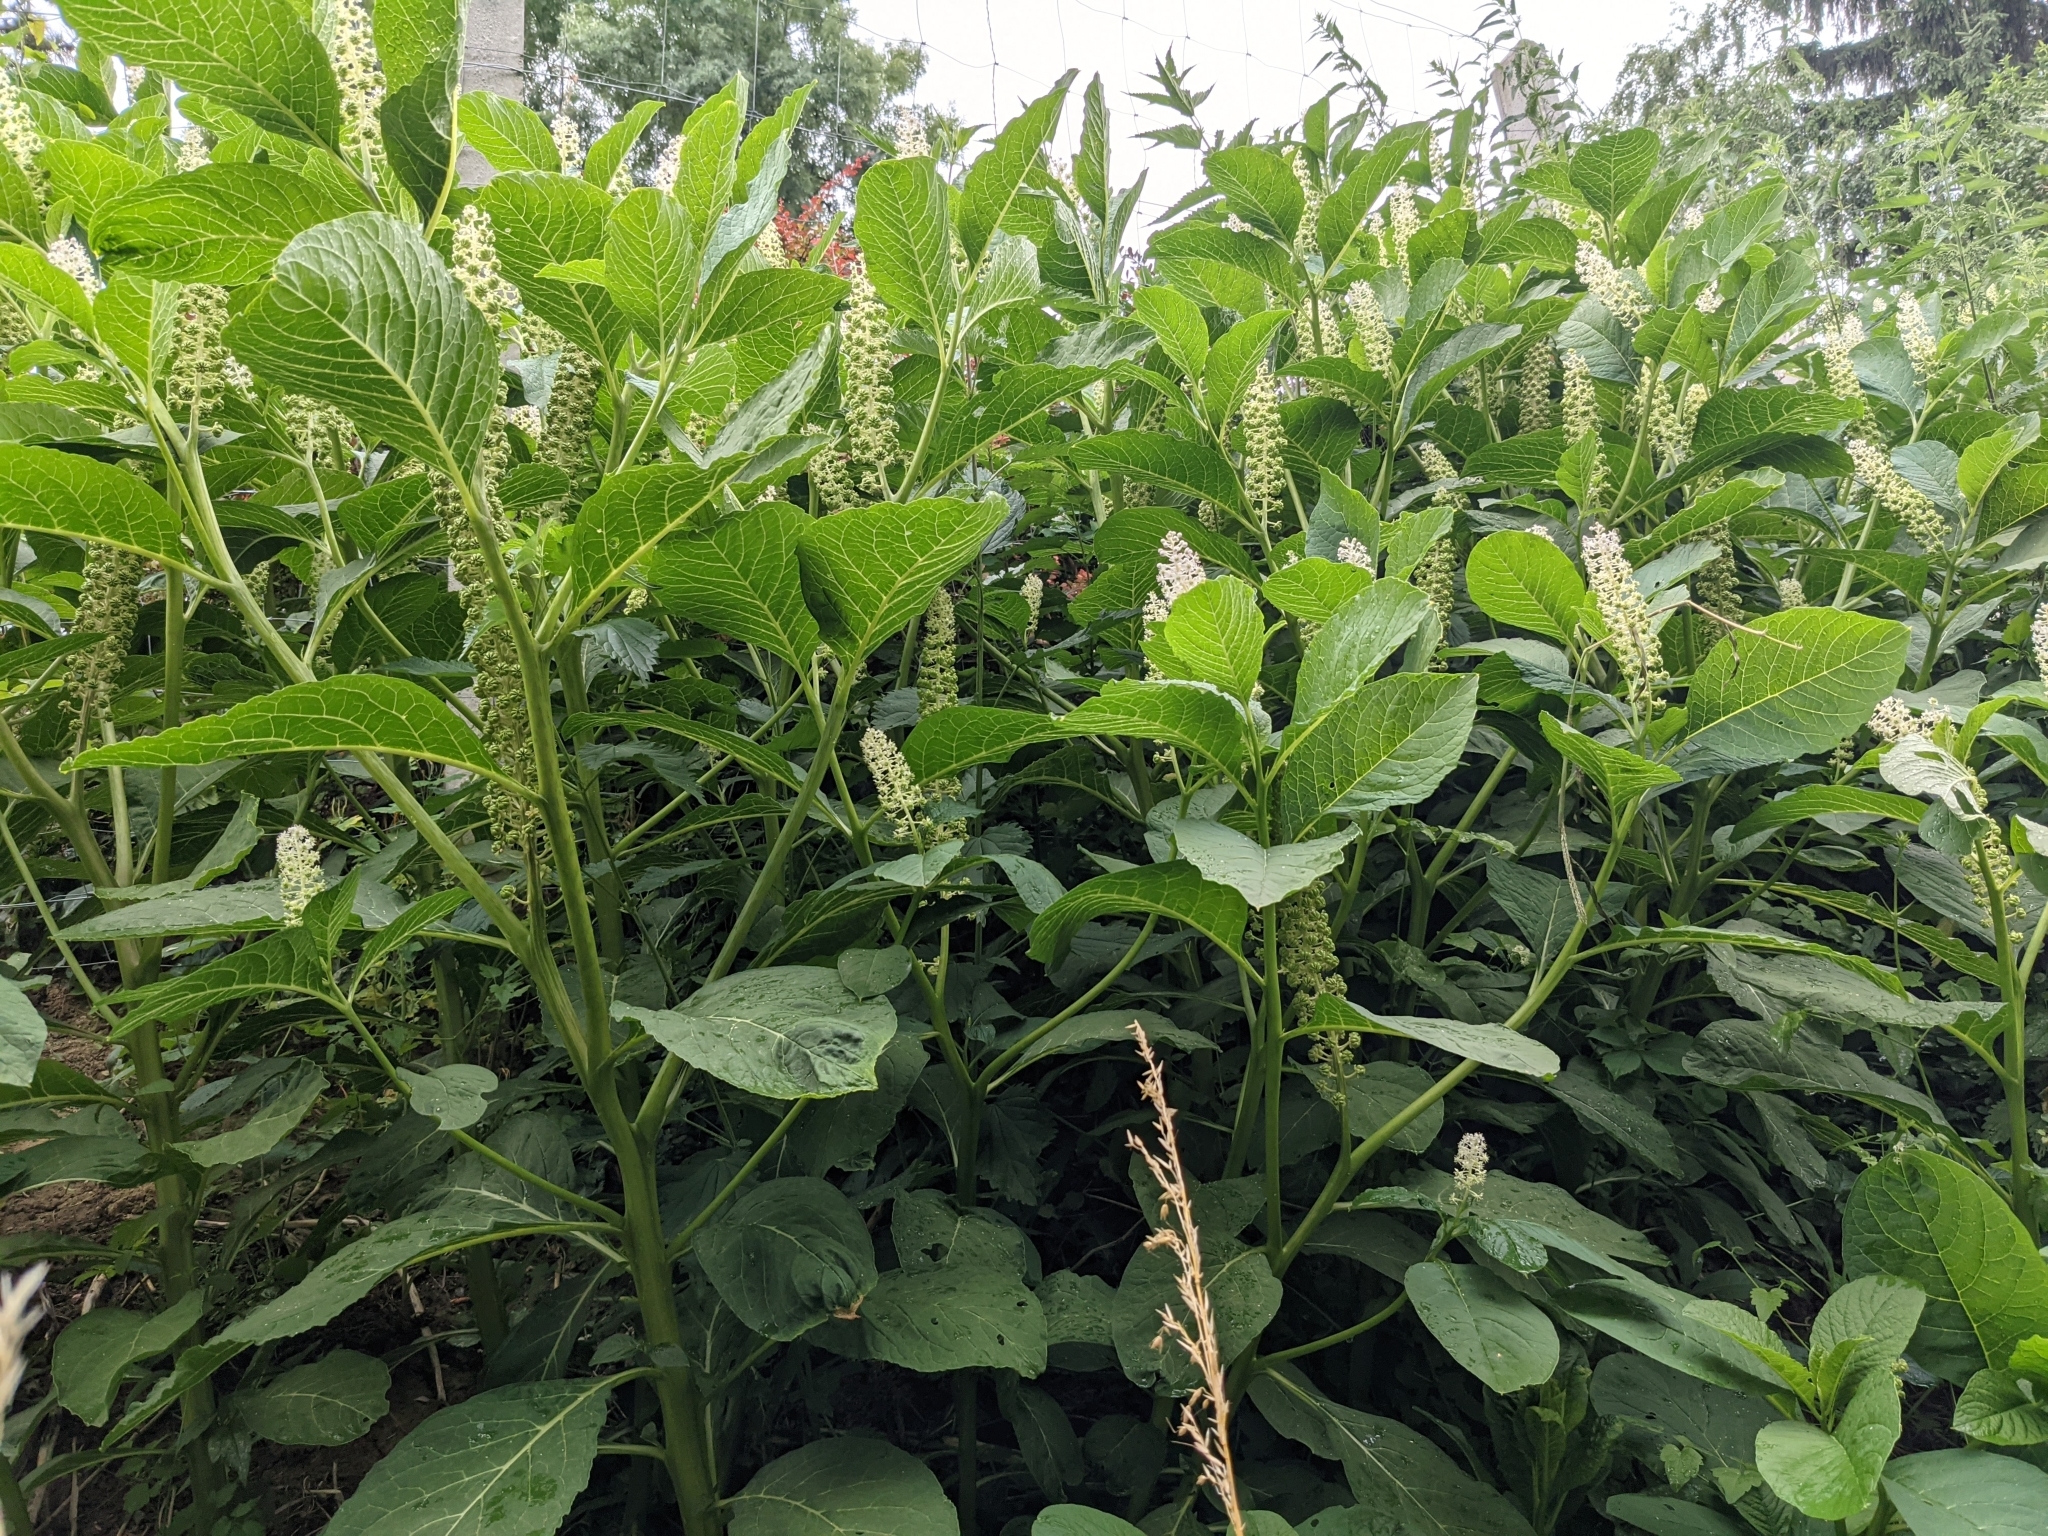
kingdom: Plantae
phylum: Tracheophyta
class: Magnoliopsida
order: Caryophyllales
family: Phytolaccaceae
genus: Phytolacca
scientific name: Phytolacca acinosa
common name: Indian pokeweed
